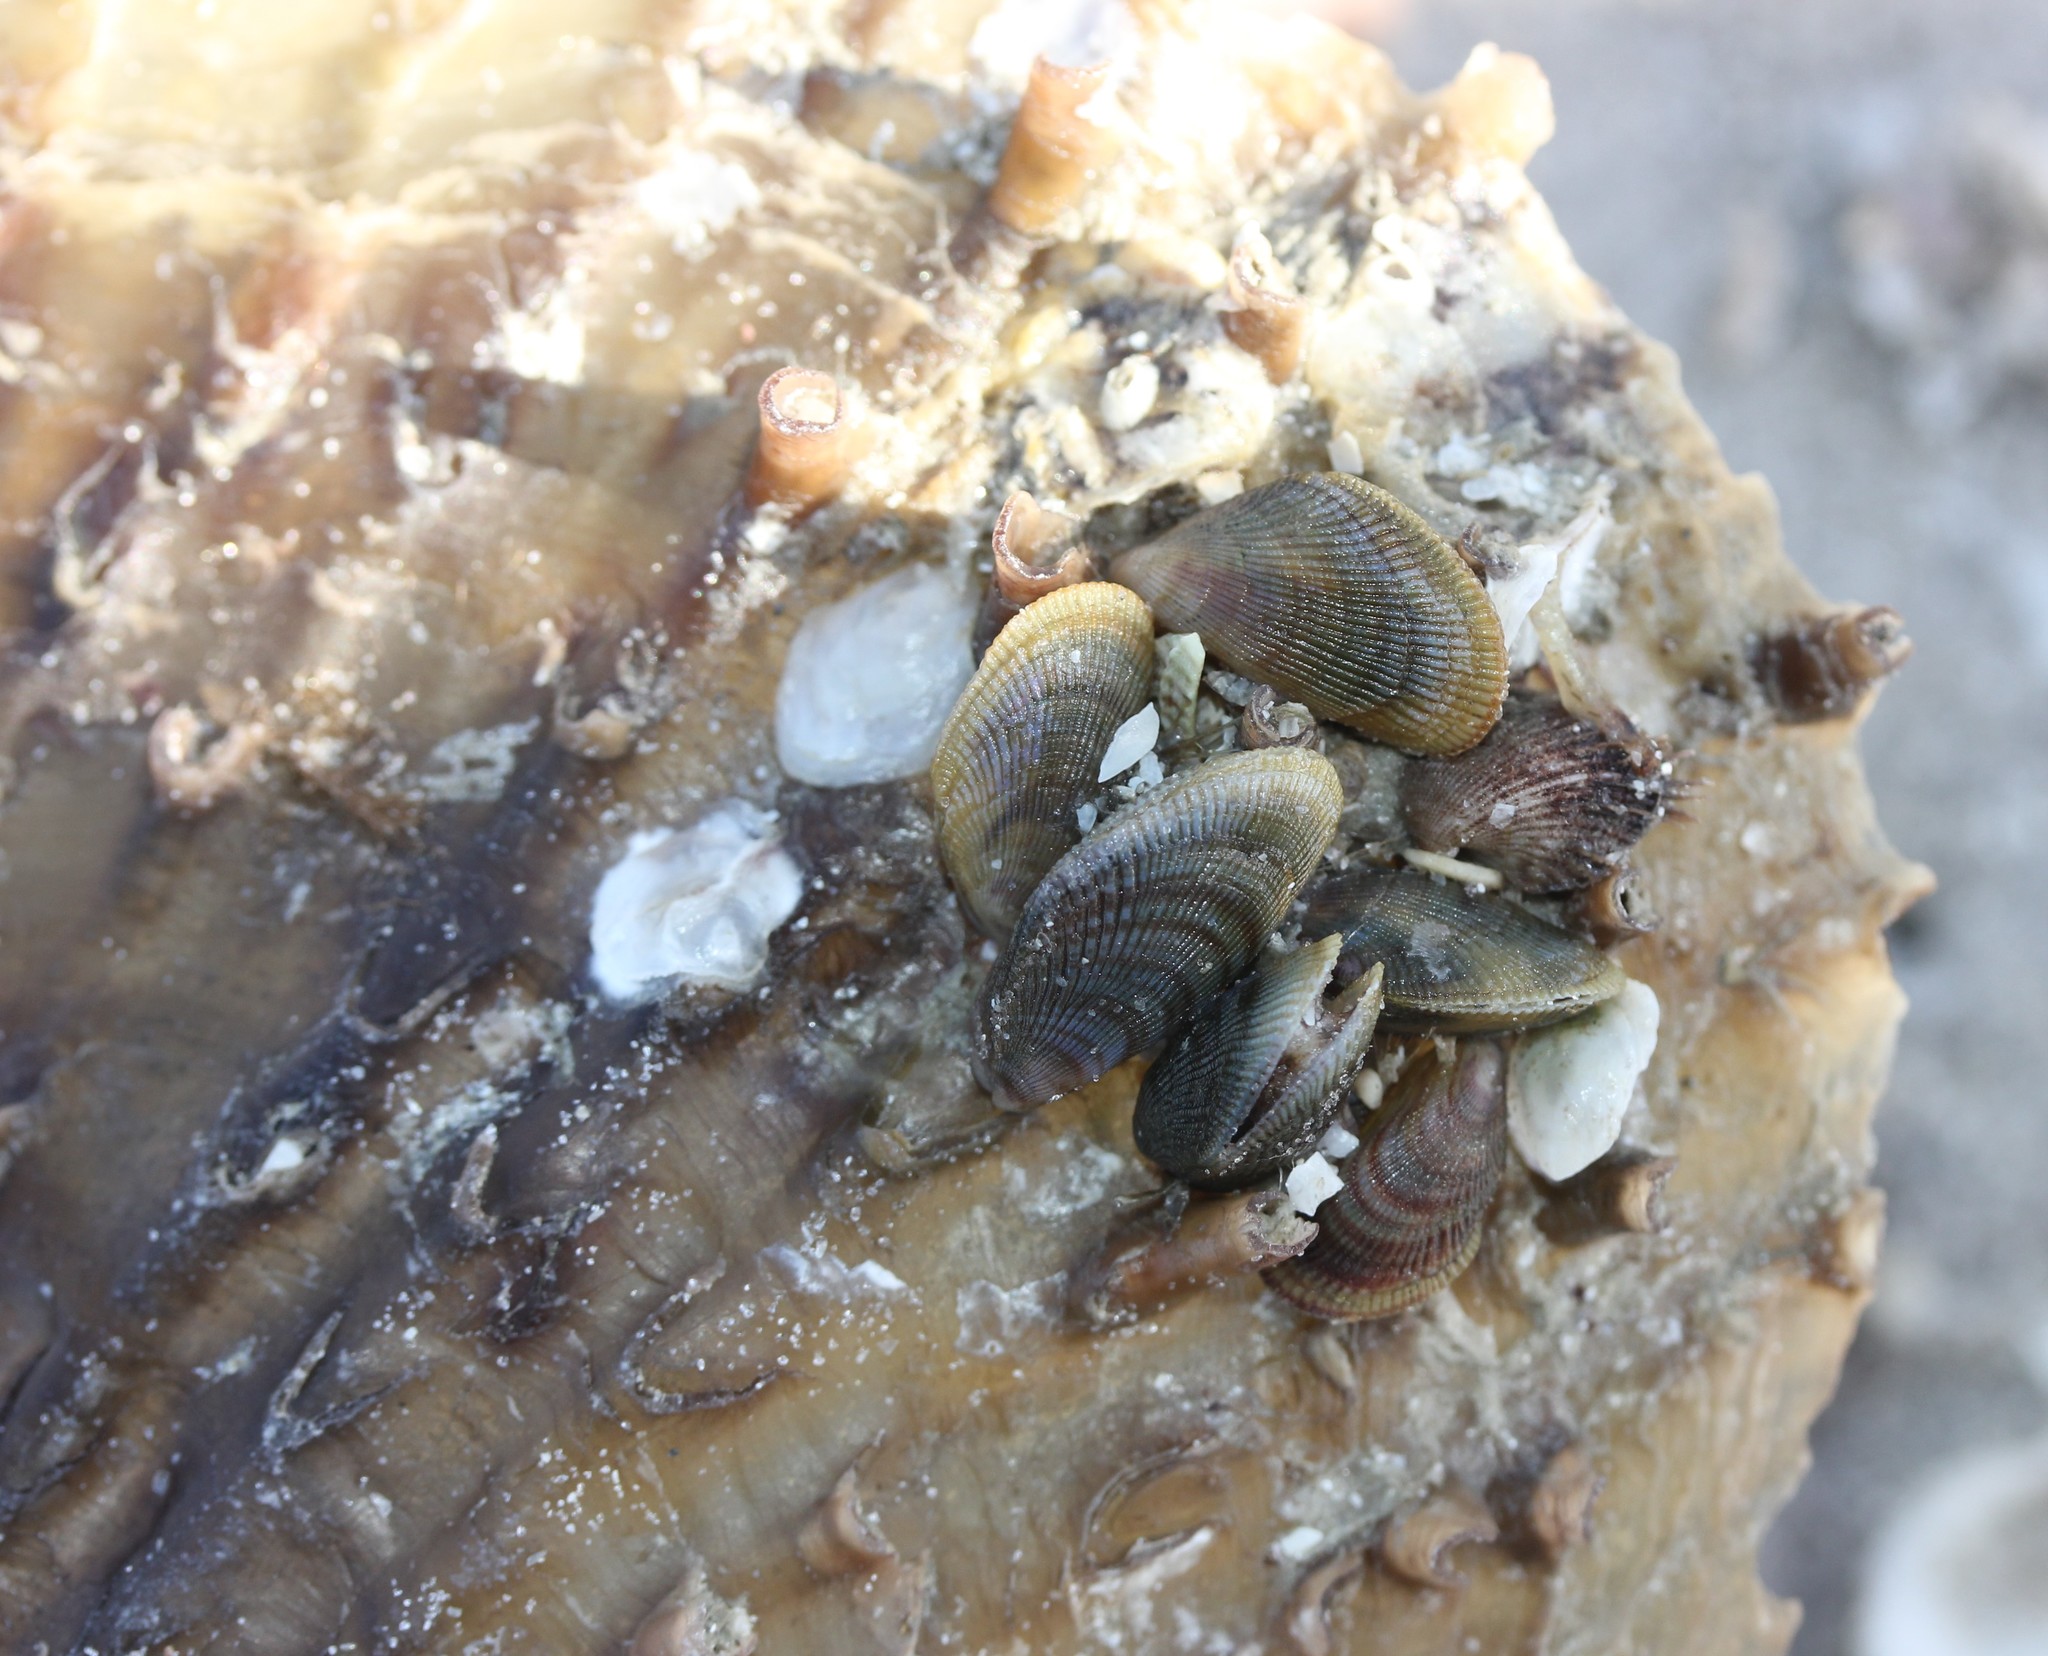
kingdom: Animalia
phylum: Mollusca
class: Bivalvia
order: Mytilida
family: Mytilidae
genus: Brachidontes
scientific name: Brachidontes exustus
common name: Scorched mussel
